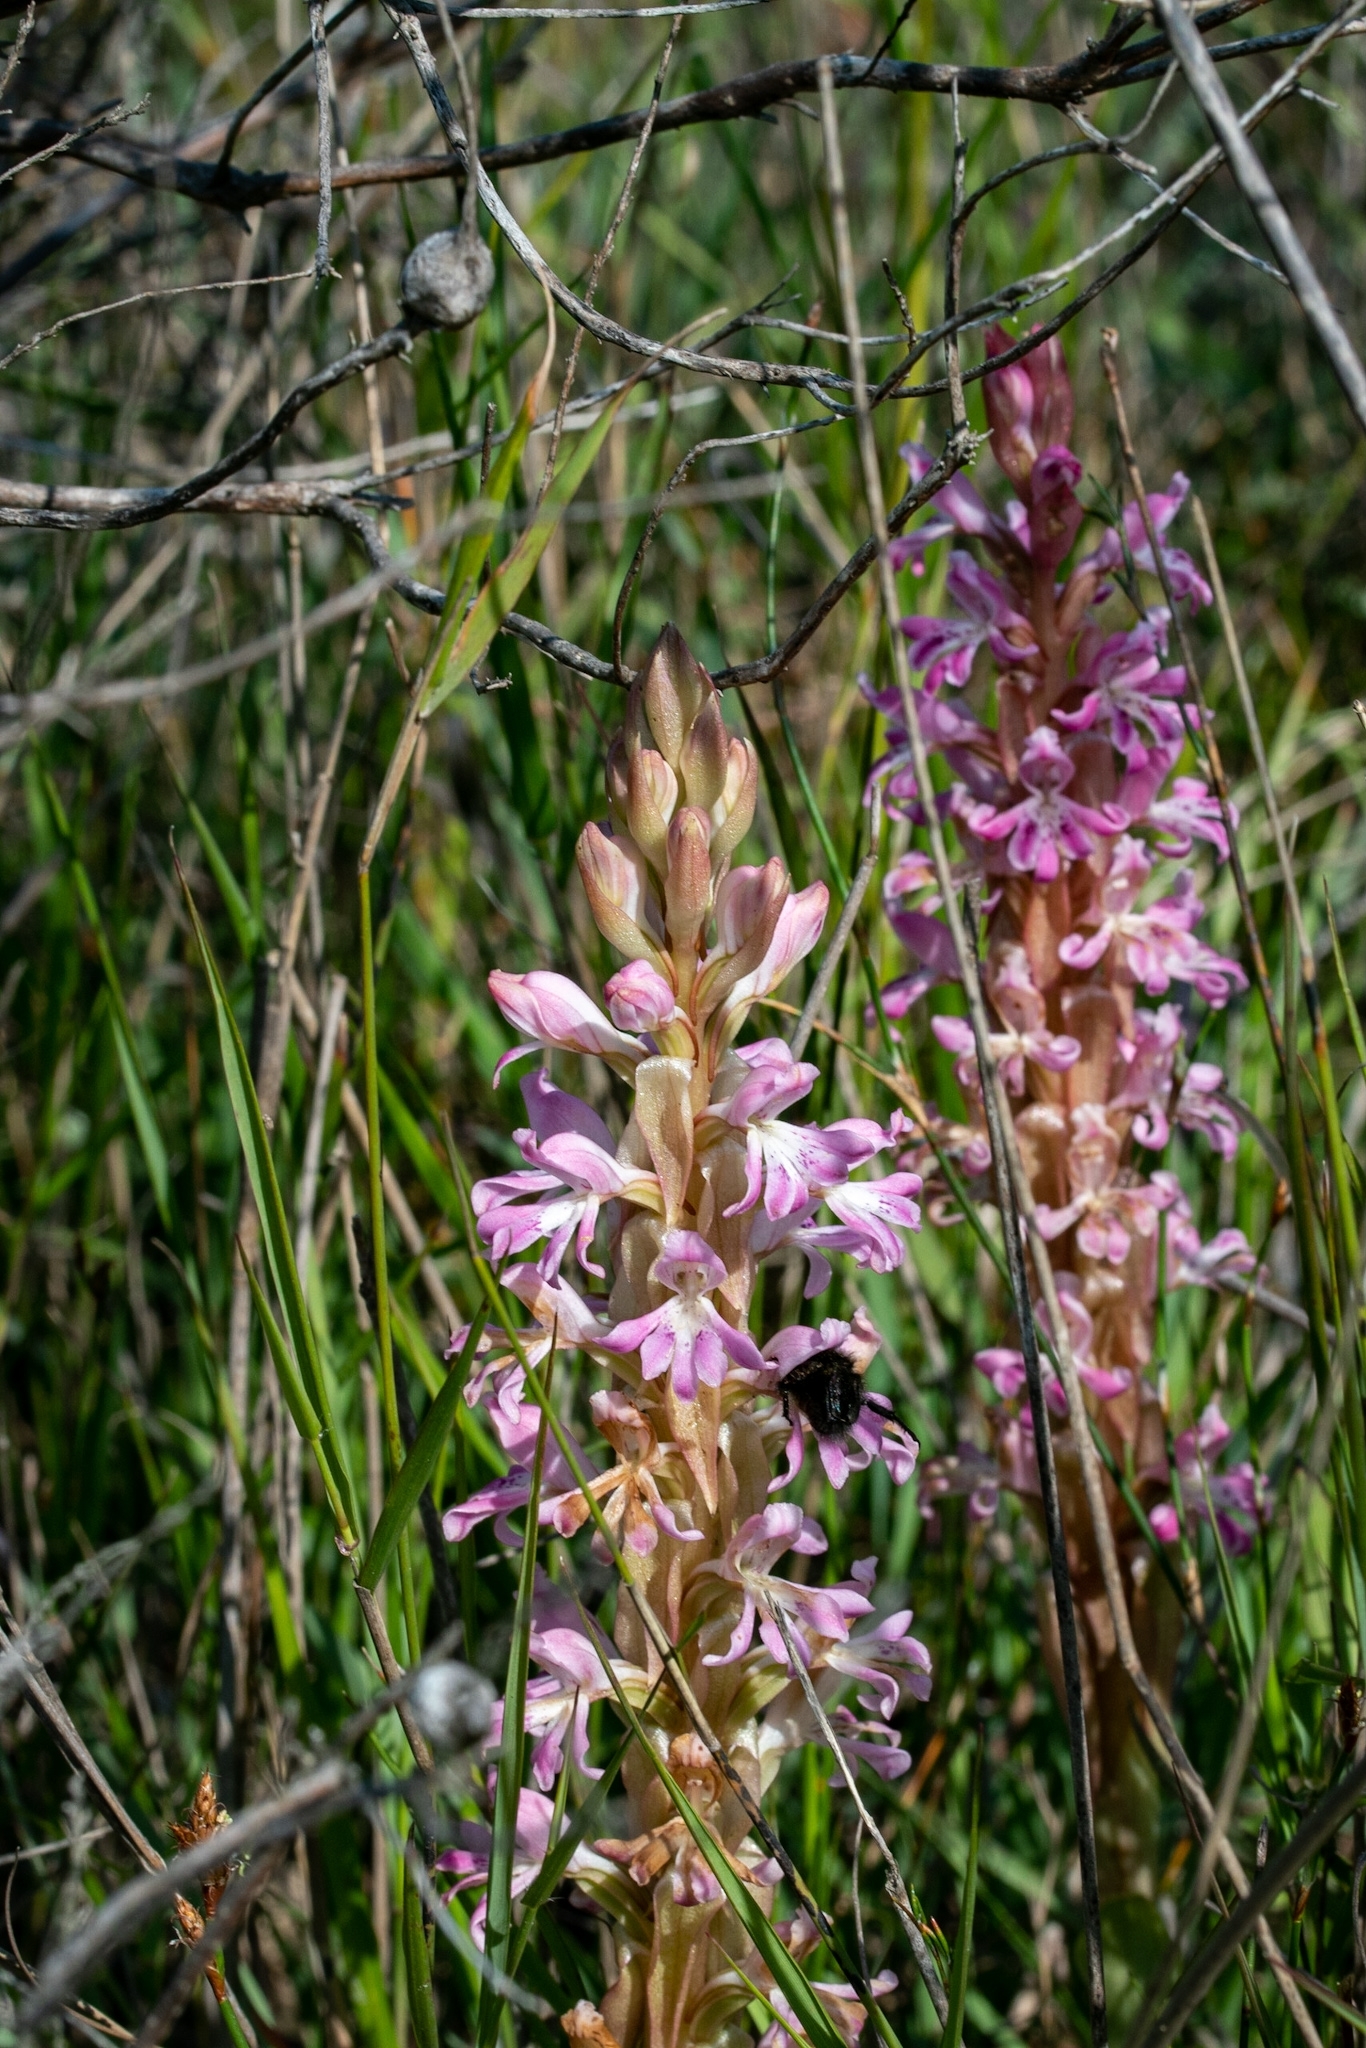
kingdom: Plantae
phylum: Tracheophyta
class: Liliopsida
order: Asparagales
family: Orchidaceae
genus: Satyrium
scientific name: Satyrium erectum
